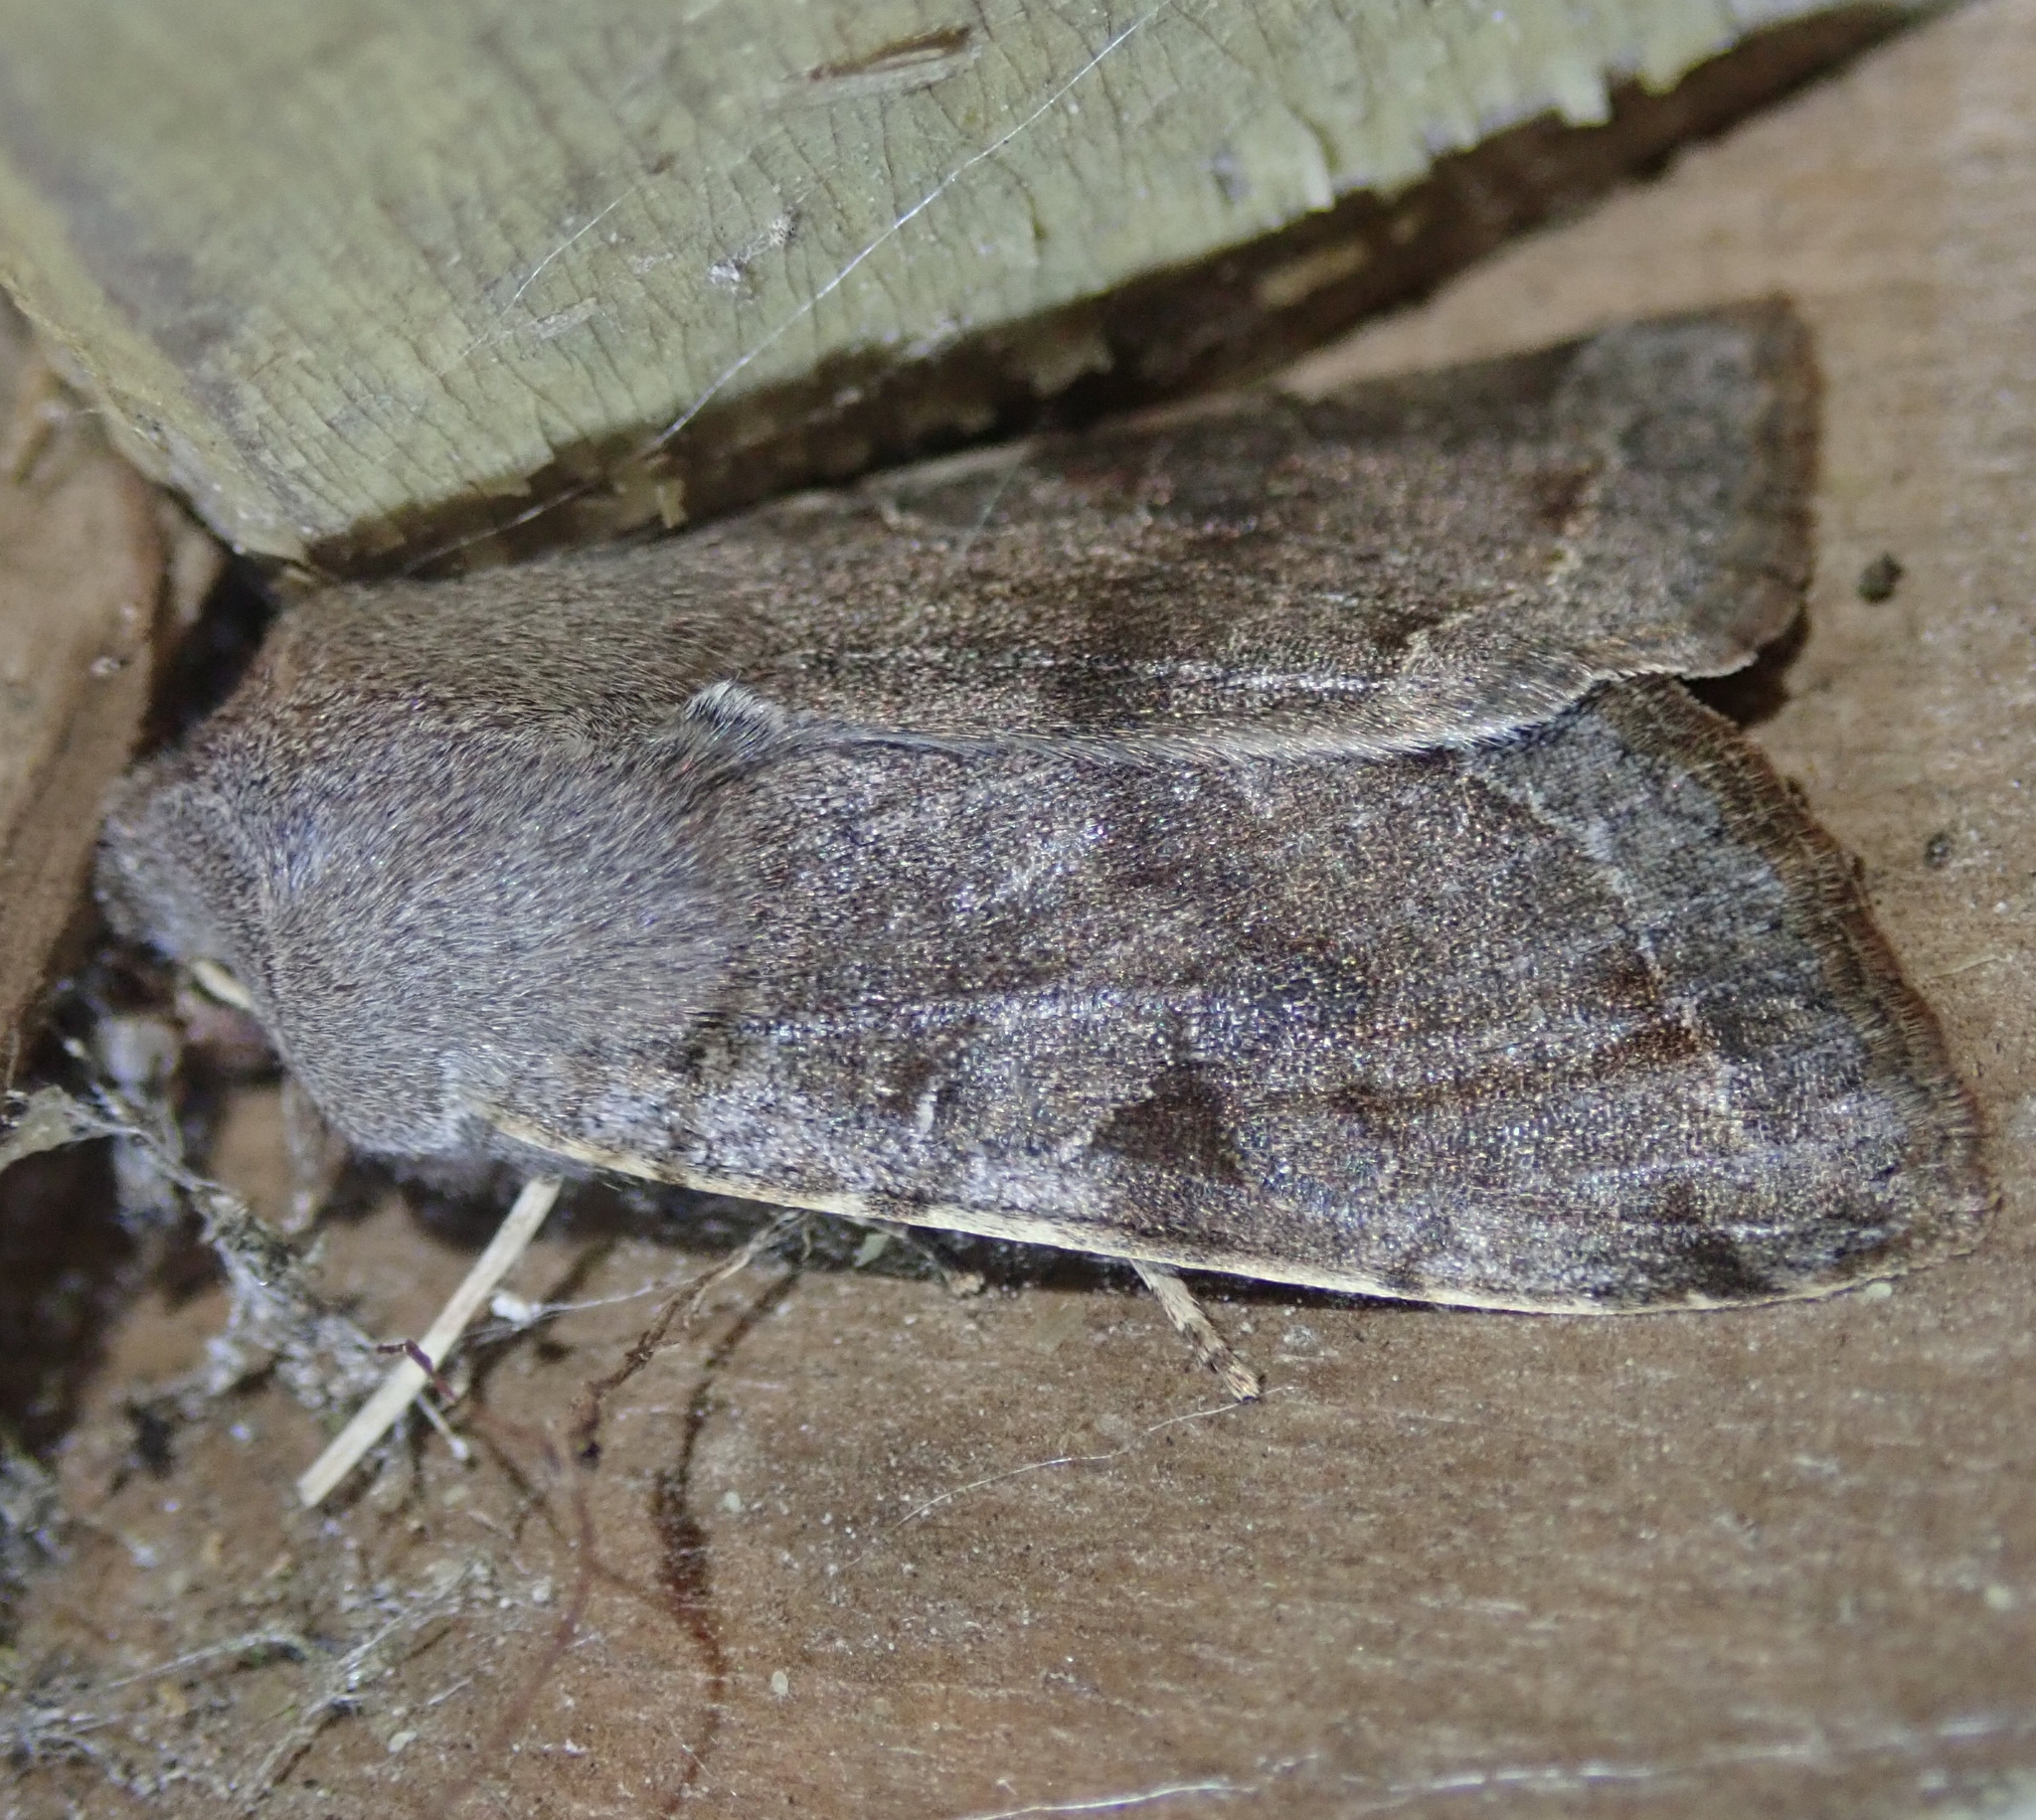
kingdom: Animalia
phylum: Arthropoda
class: Insecta
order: Lepidoptera
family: Noctuidae
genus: Orthosia
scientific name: Orthosia incerta
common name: Clouded drab
